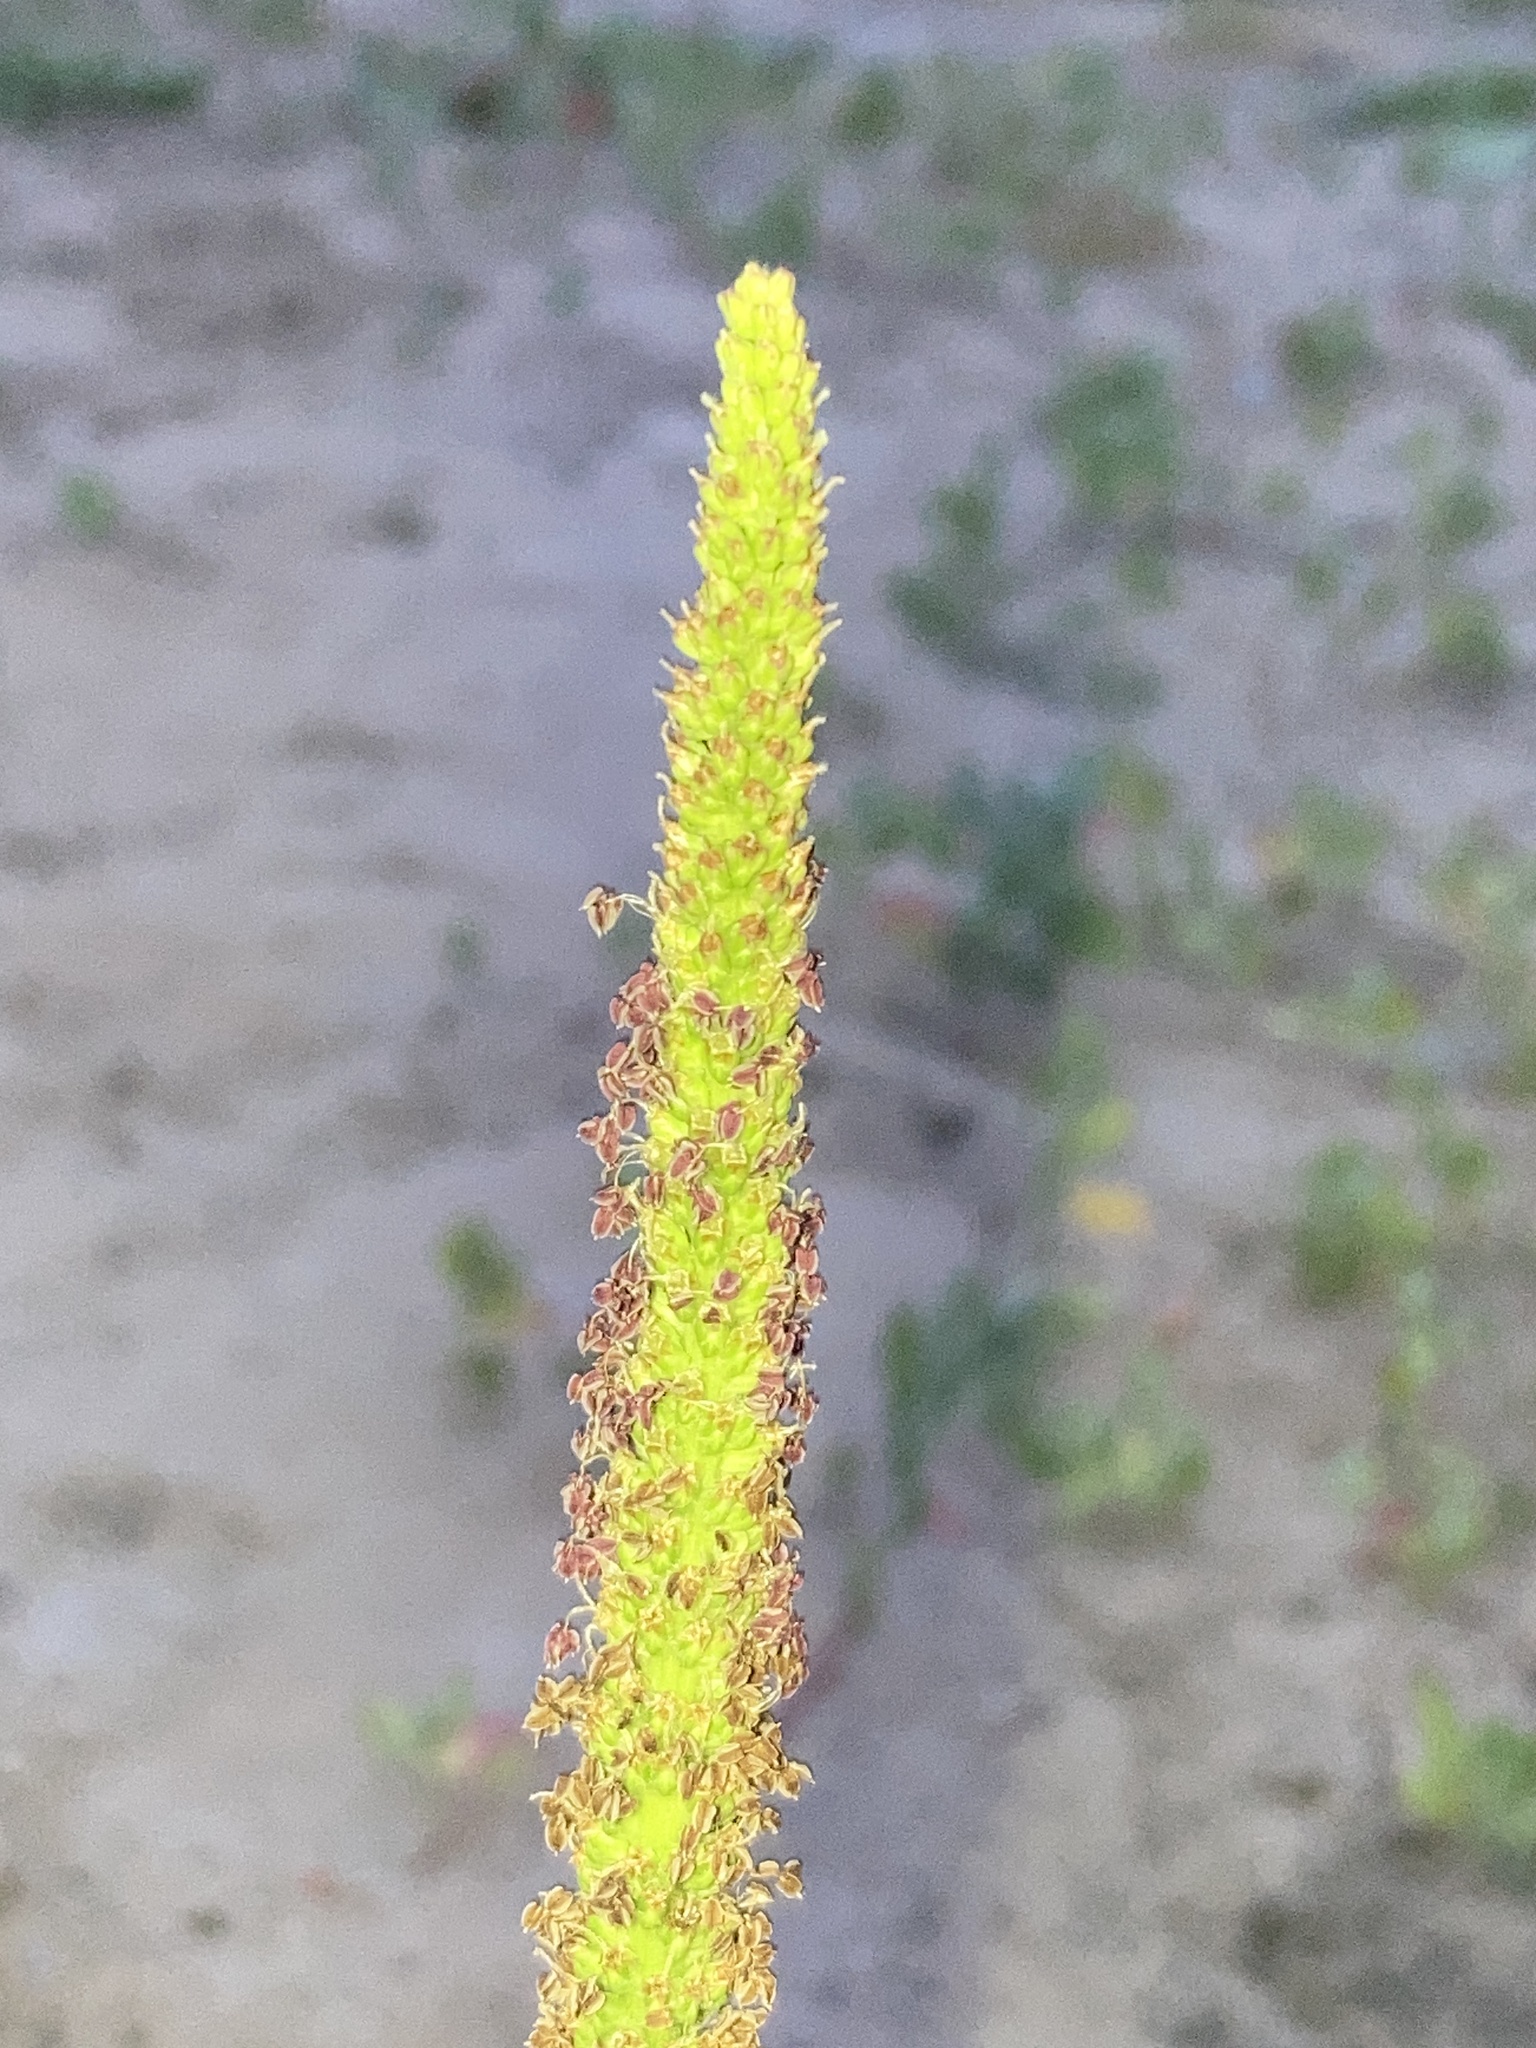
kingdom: Plantae
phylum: Tracheophyta
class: Magnoliopsida
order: Lamiales
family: Plantaginaceae
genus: Plantago
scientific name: Plantago major
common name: Common plantain
